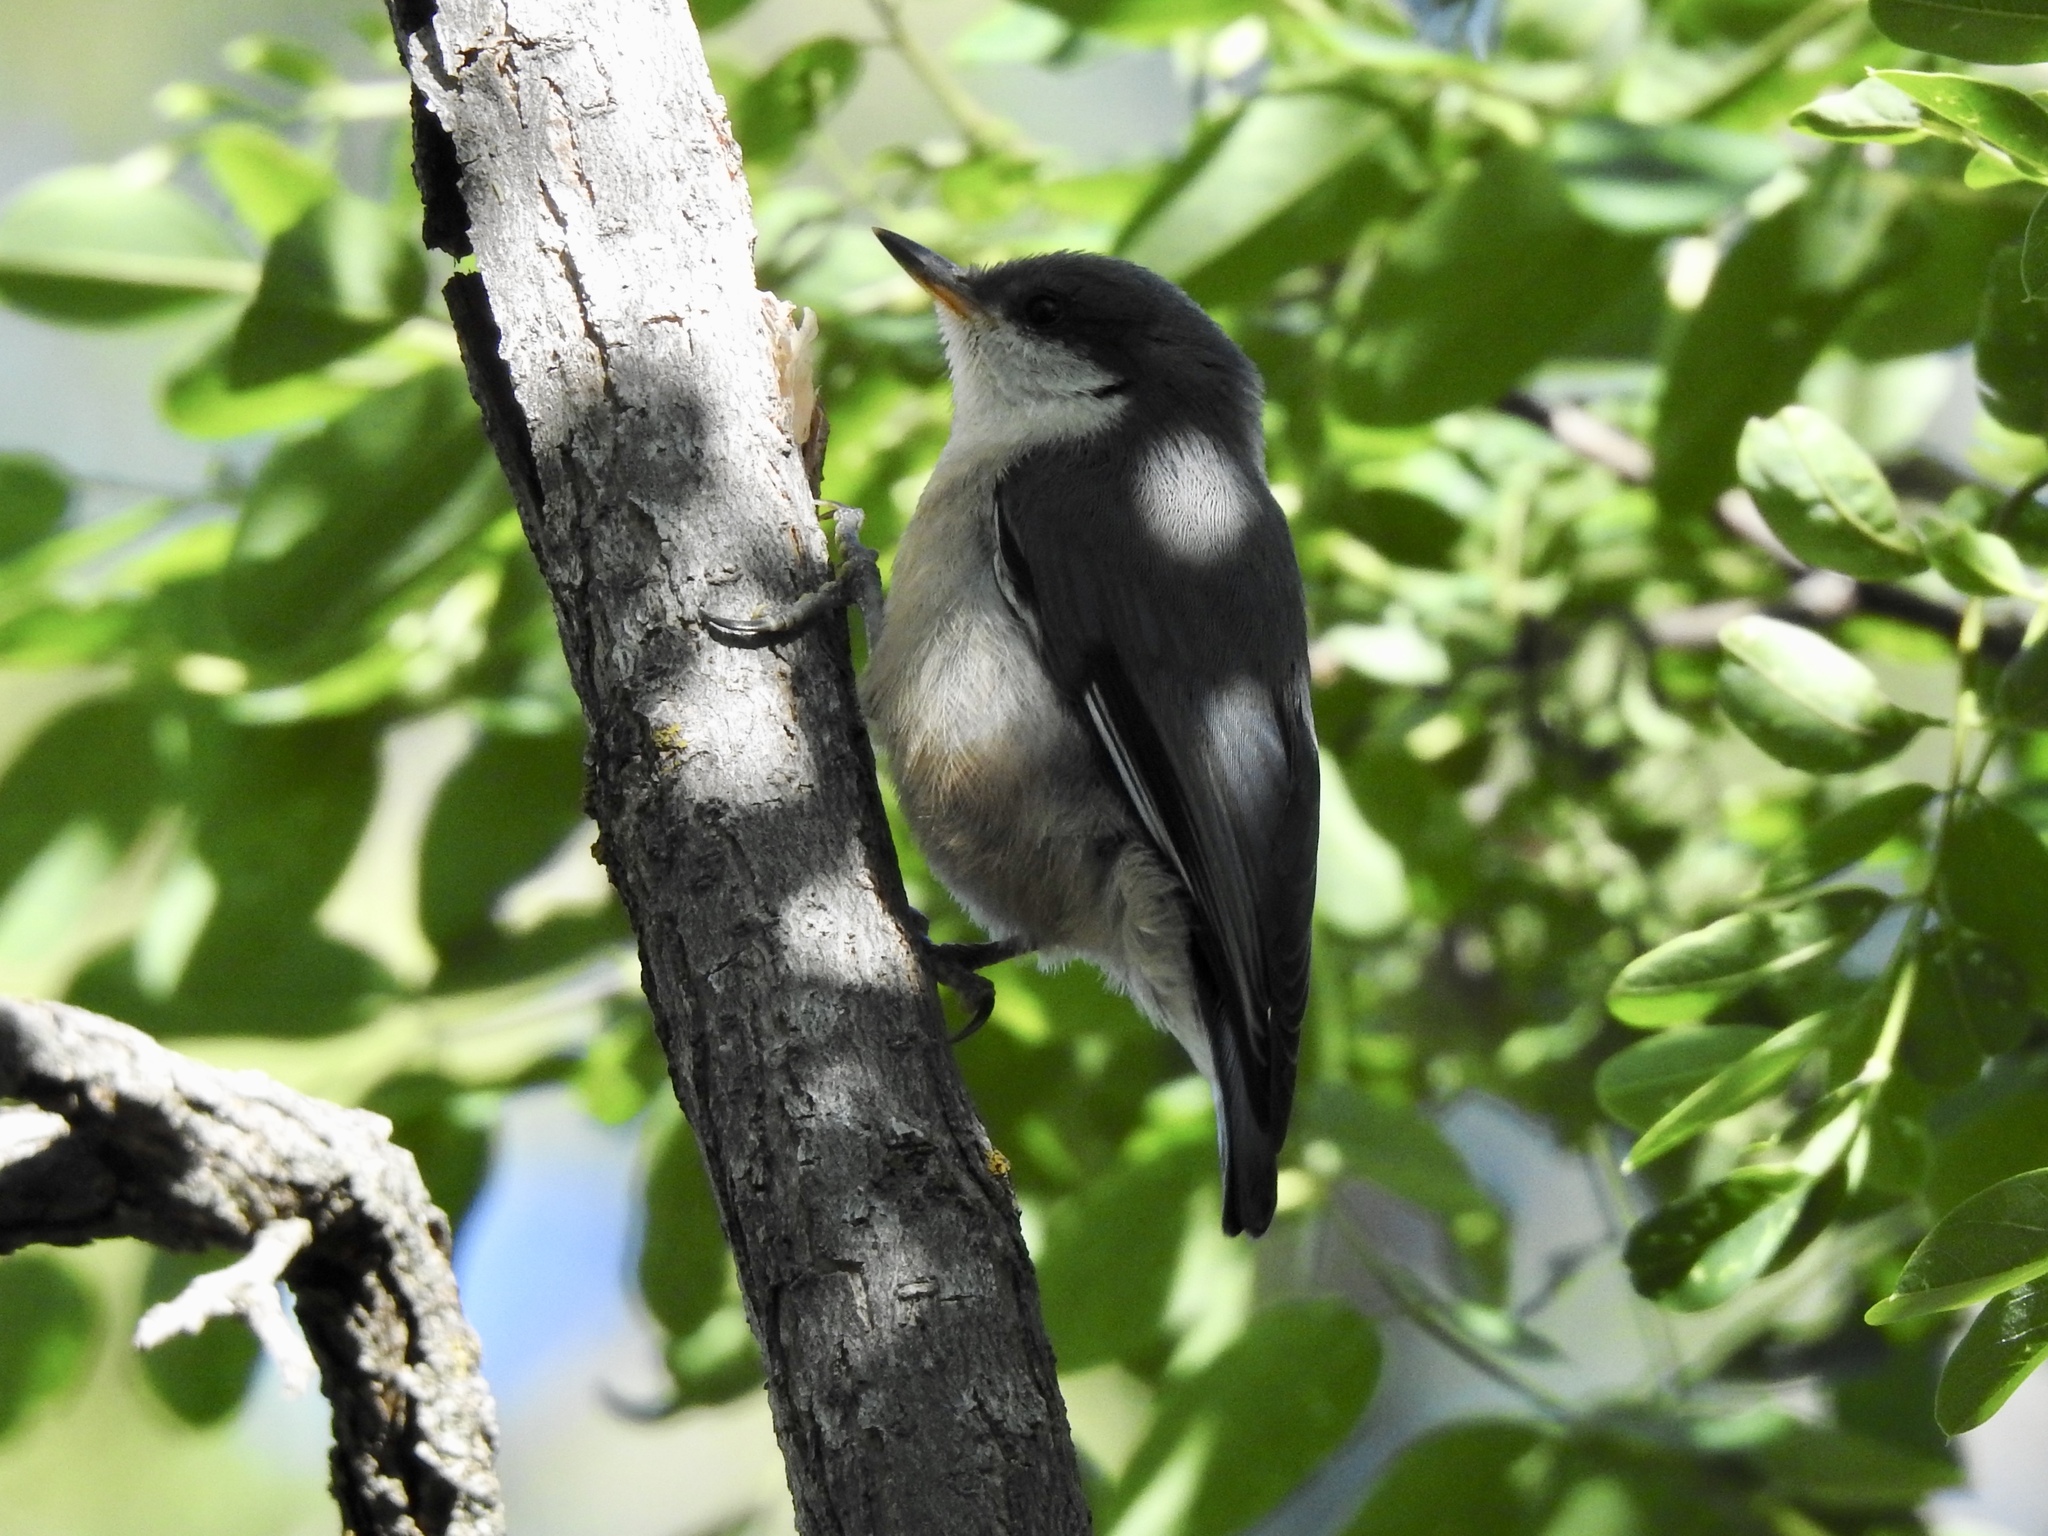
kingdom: Animalia
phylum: Chordata
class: Aves
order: Passeriformes
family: Sittidae
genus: Sitta
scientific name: Sitta pygmaea
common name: Pygmy nuthatch
